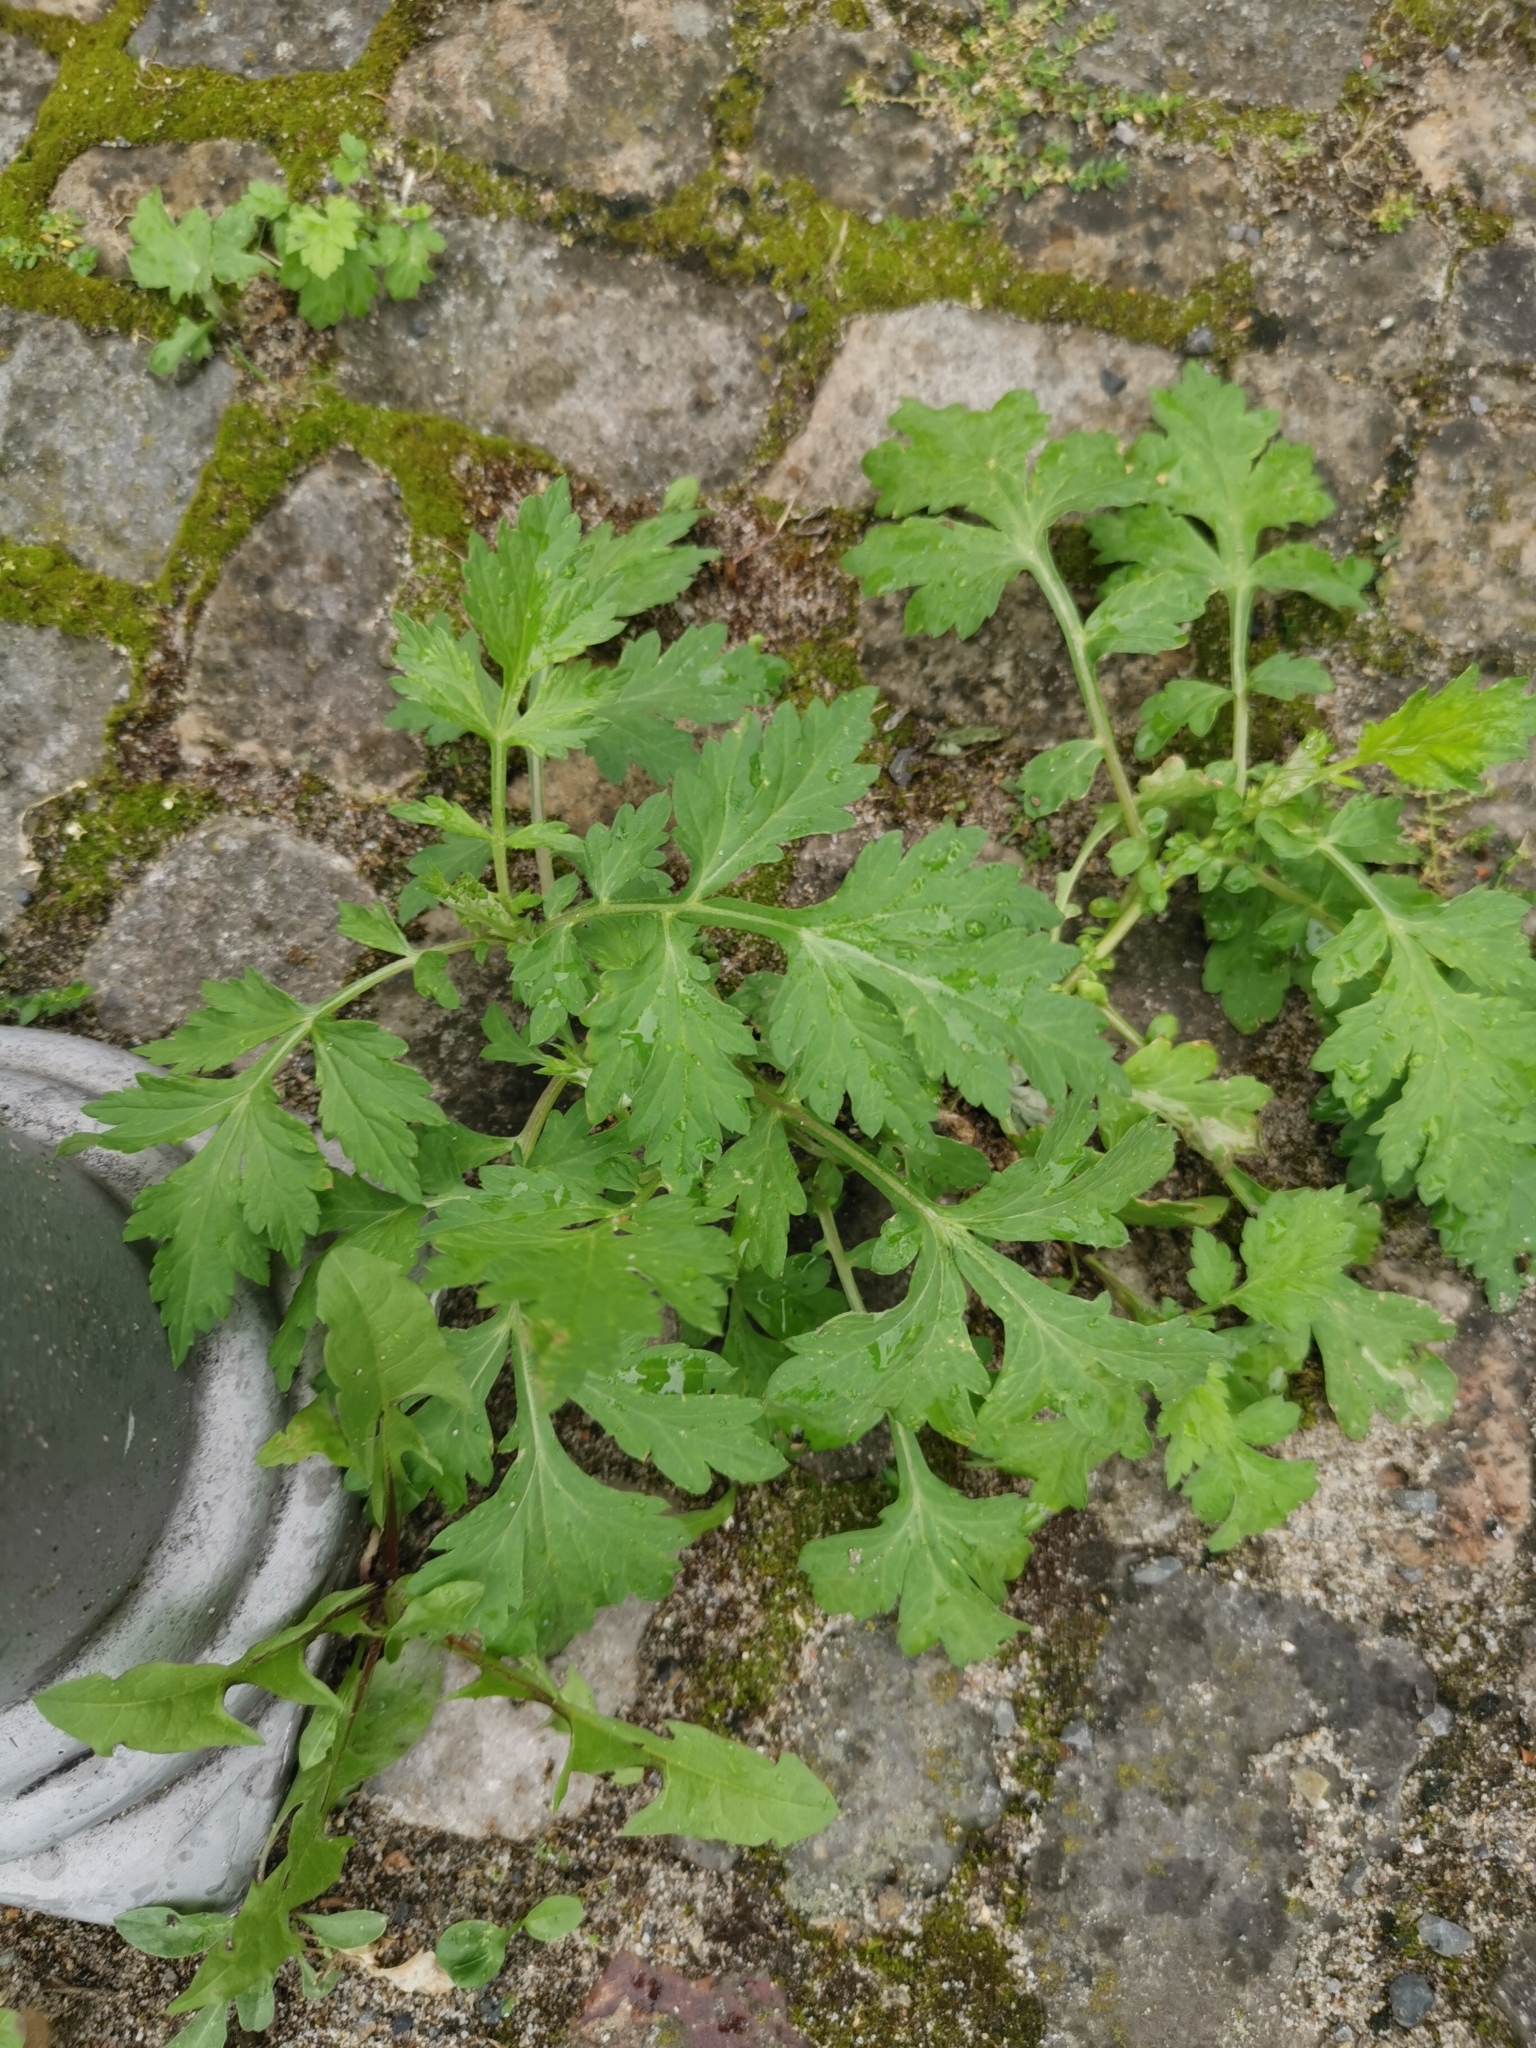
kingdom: Plantae
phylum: Tracheophyta
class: Magnoliopsida
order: Asterales
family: Asteraceae
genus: Artemisia
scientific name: Artemisia vulgaris
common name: Mugwort
